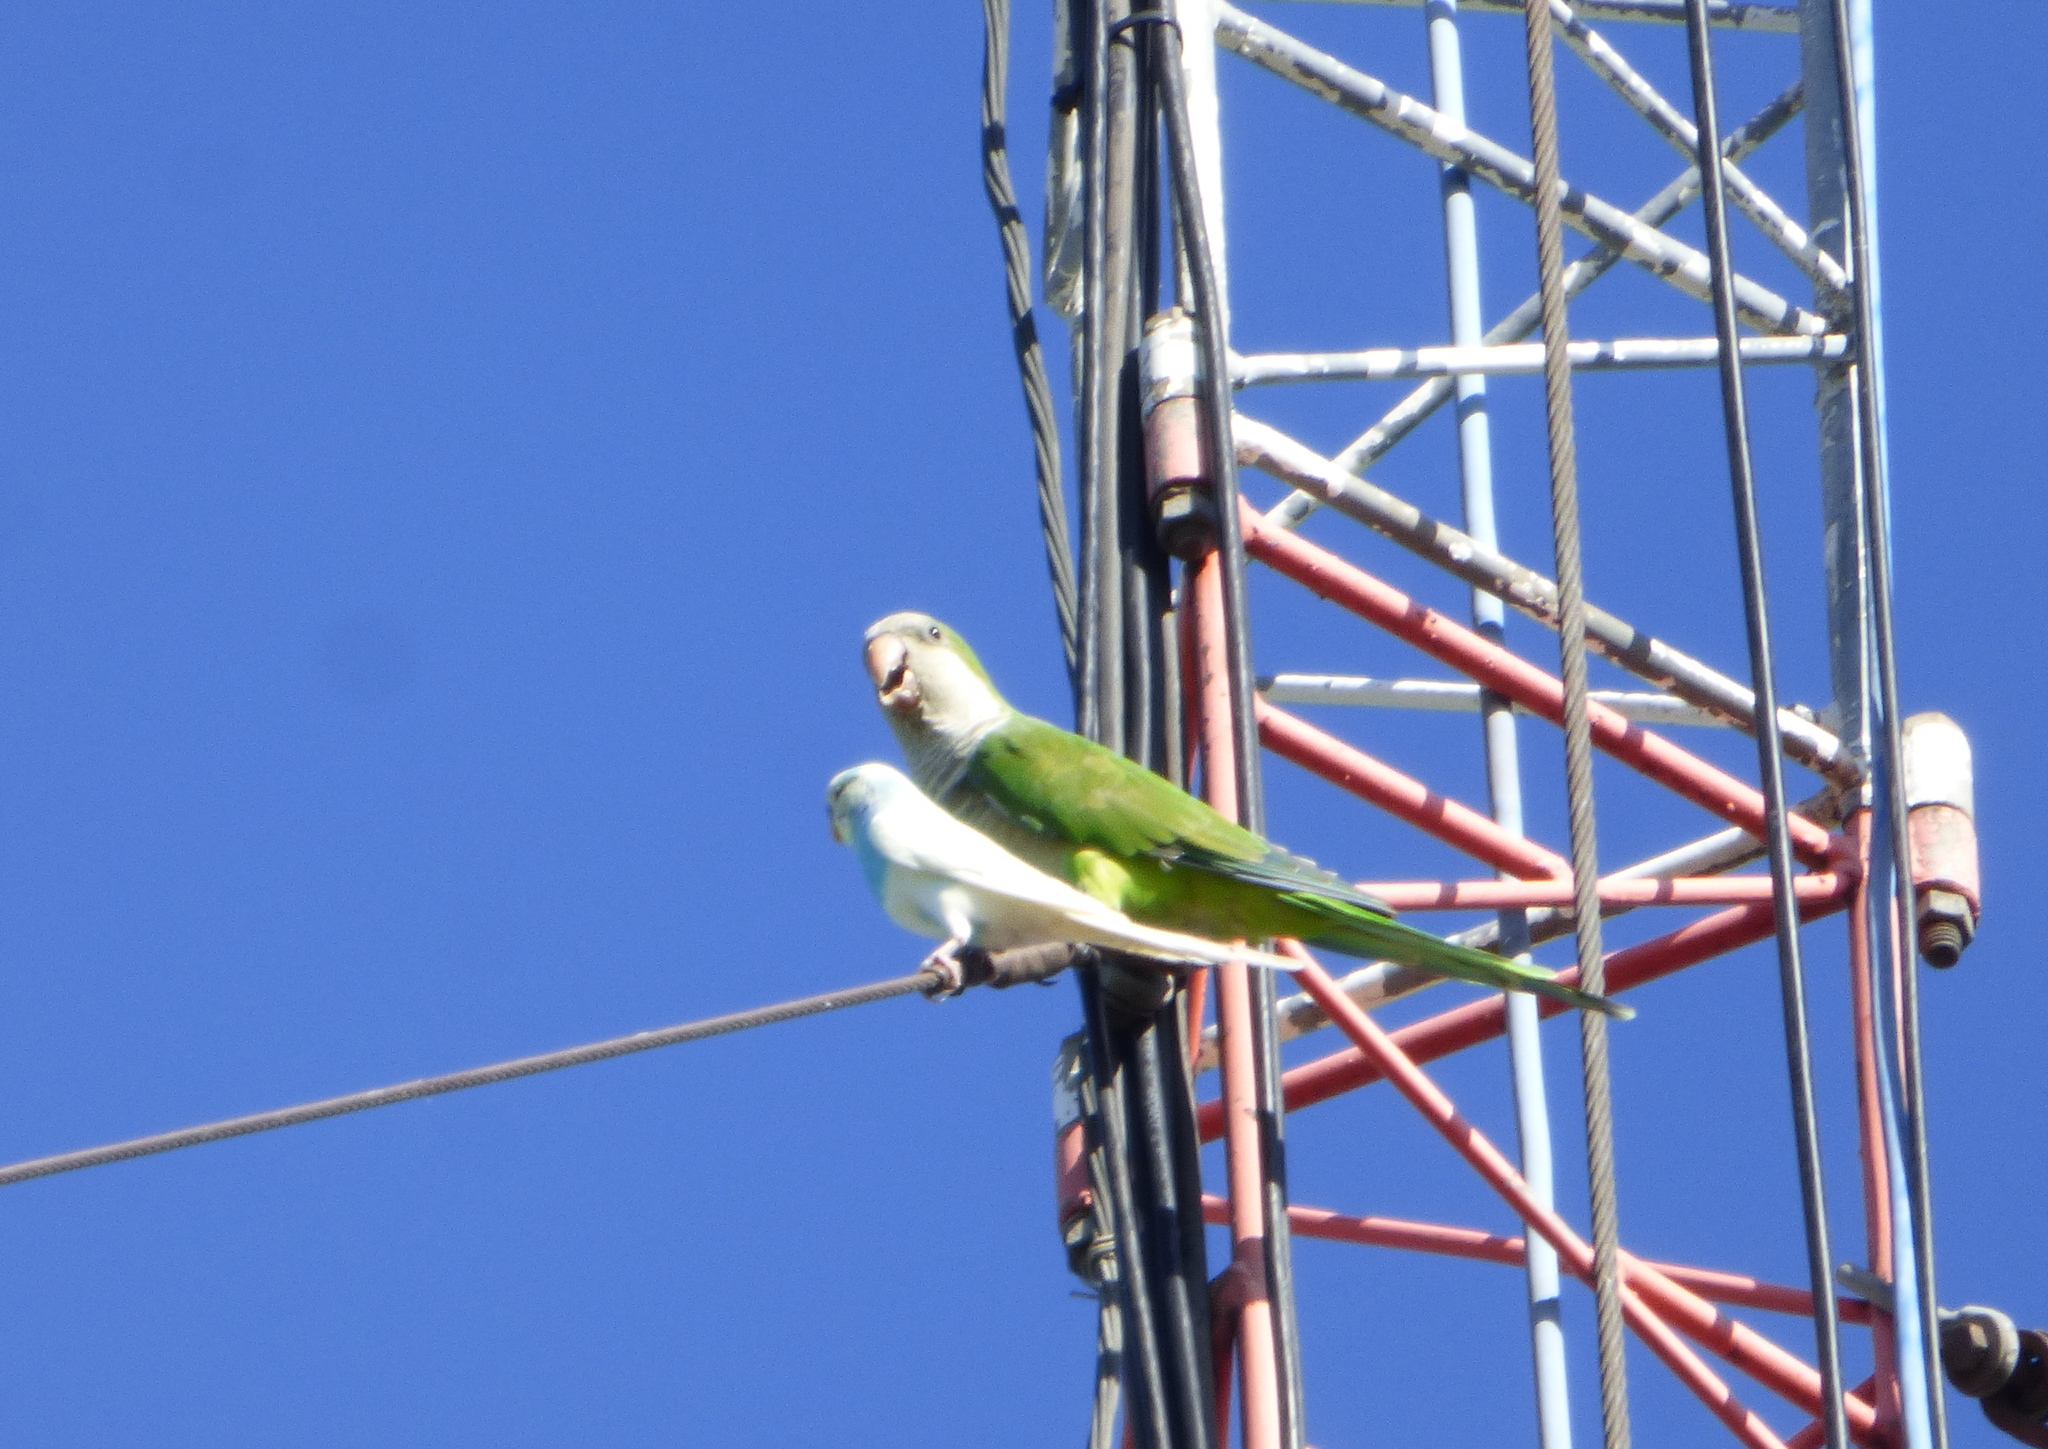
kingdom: Animalia
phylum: Chordata
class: Aves
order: Psittaciformes
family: Psittacidae
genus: Myiopsitta
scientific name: Myiopsitta monachus
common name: Monk parakeet
